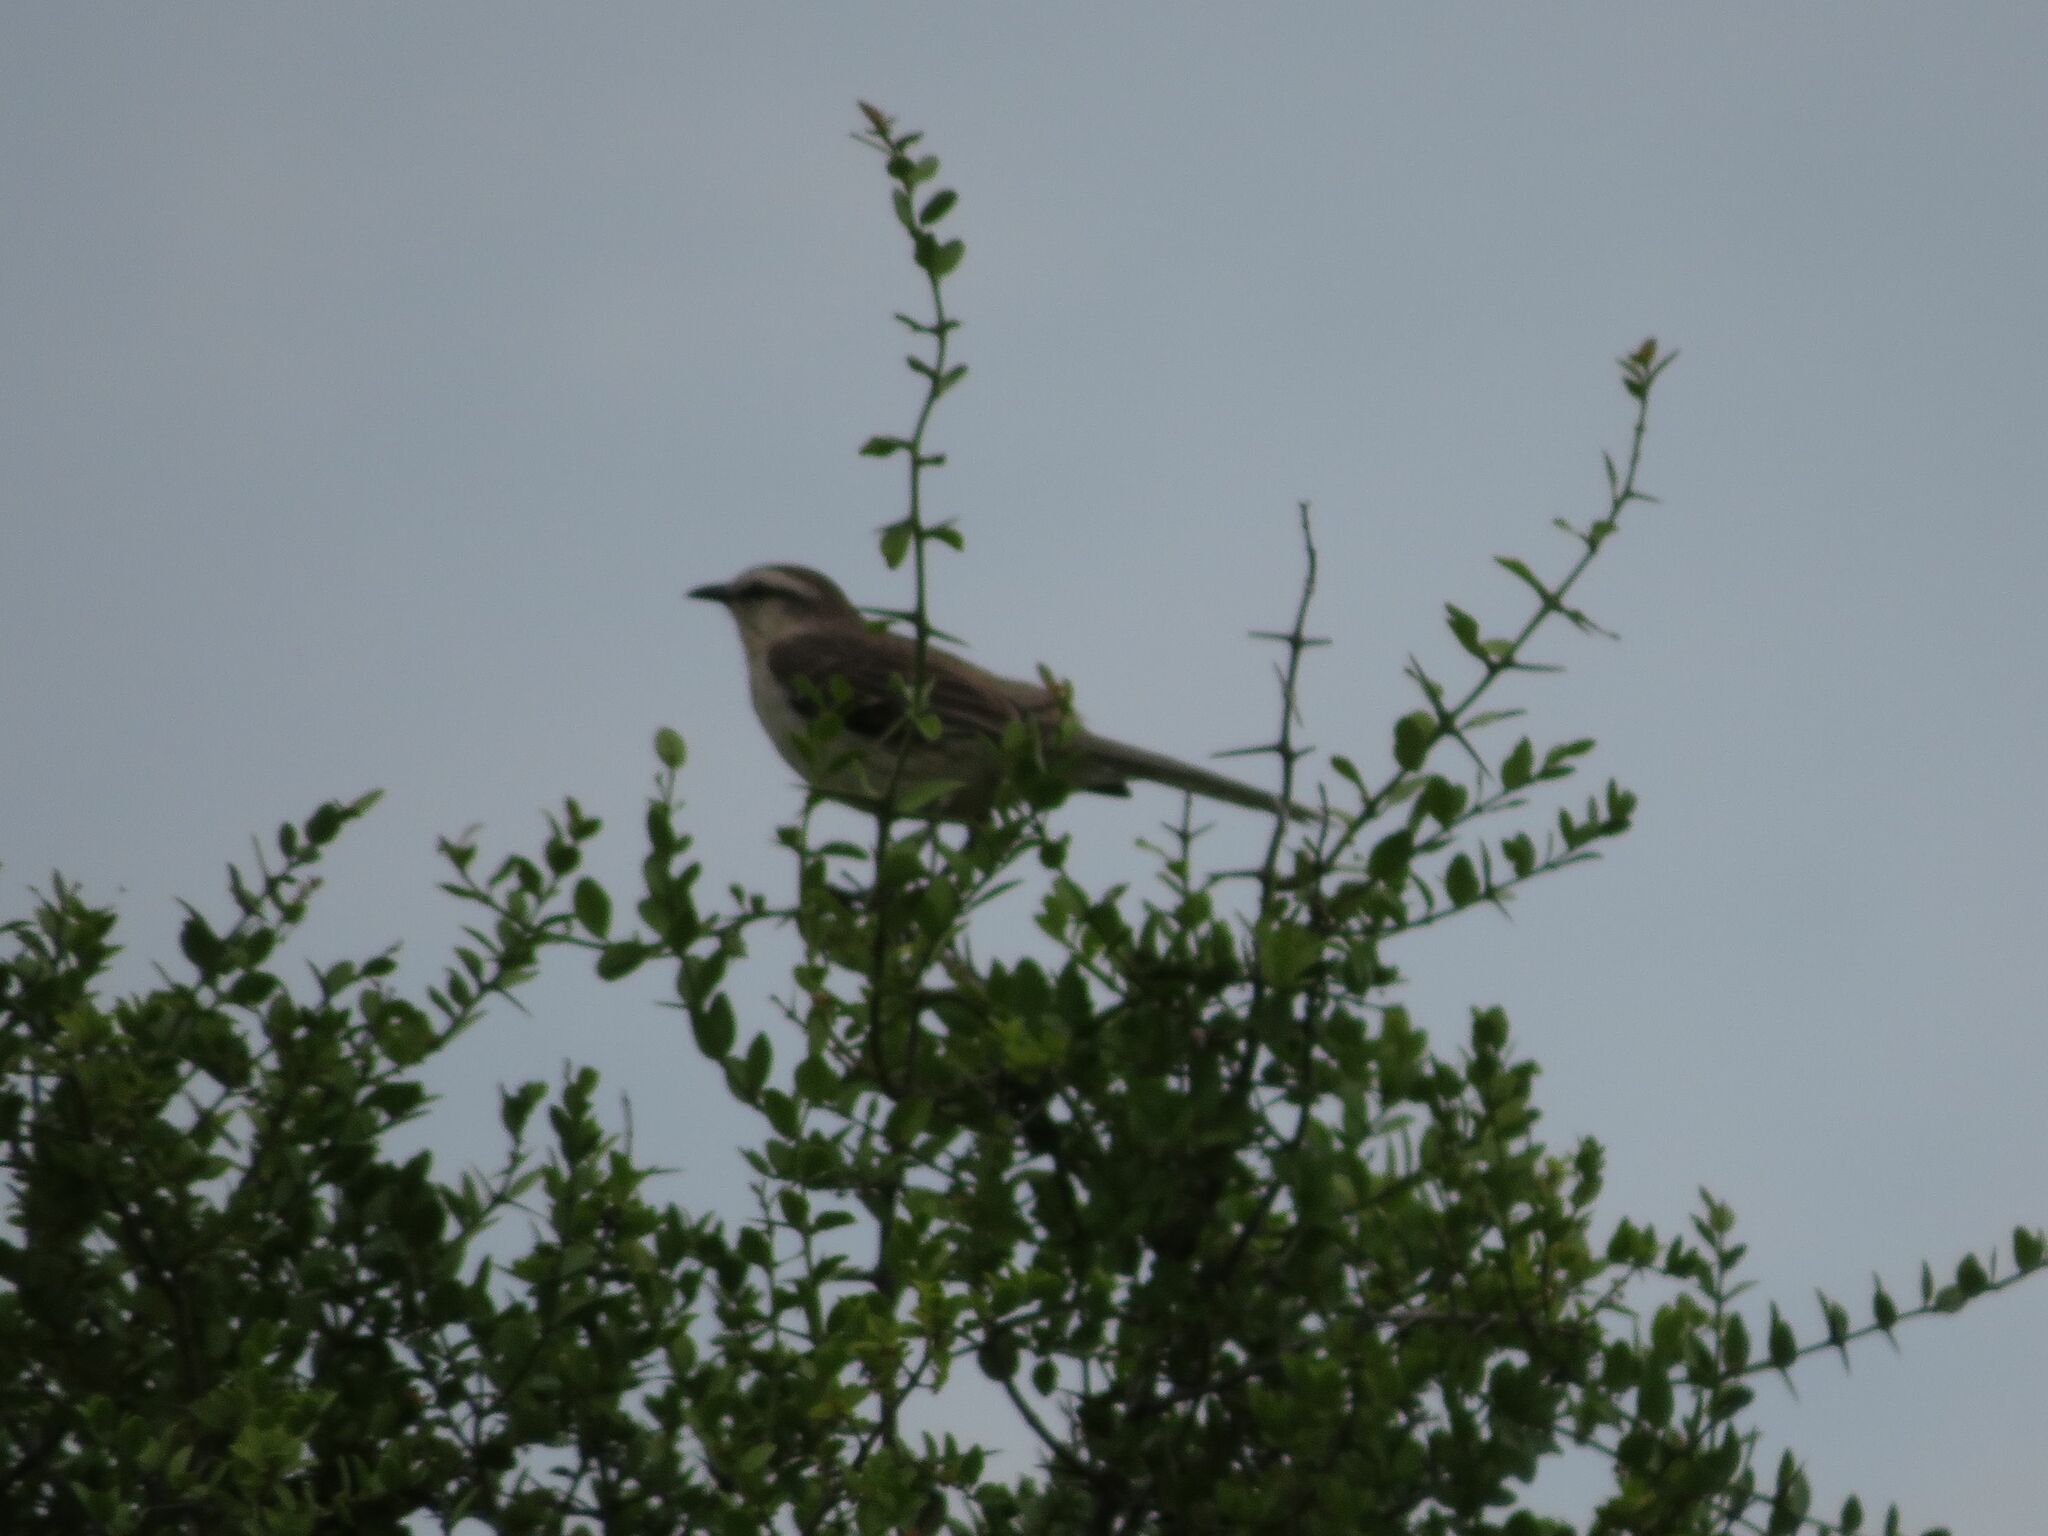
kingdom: Animalia
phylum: Chordata
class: Aves
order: Passeriformes
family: Mimidae
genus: Mimus
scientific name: Mimus saturninus
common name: Chalk-browed mockingbird
